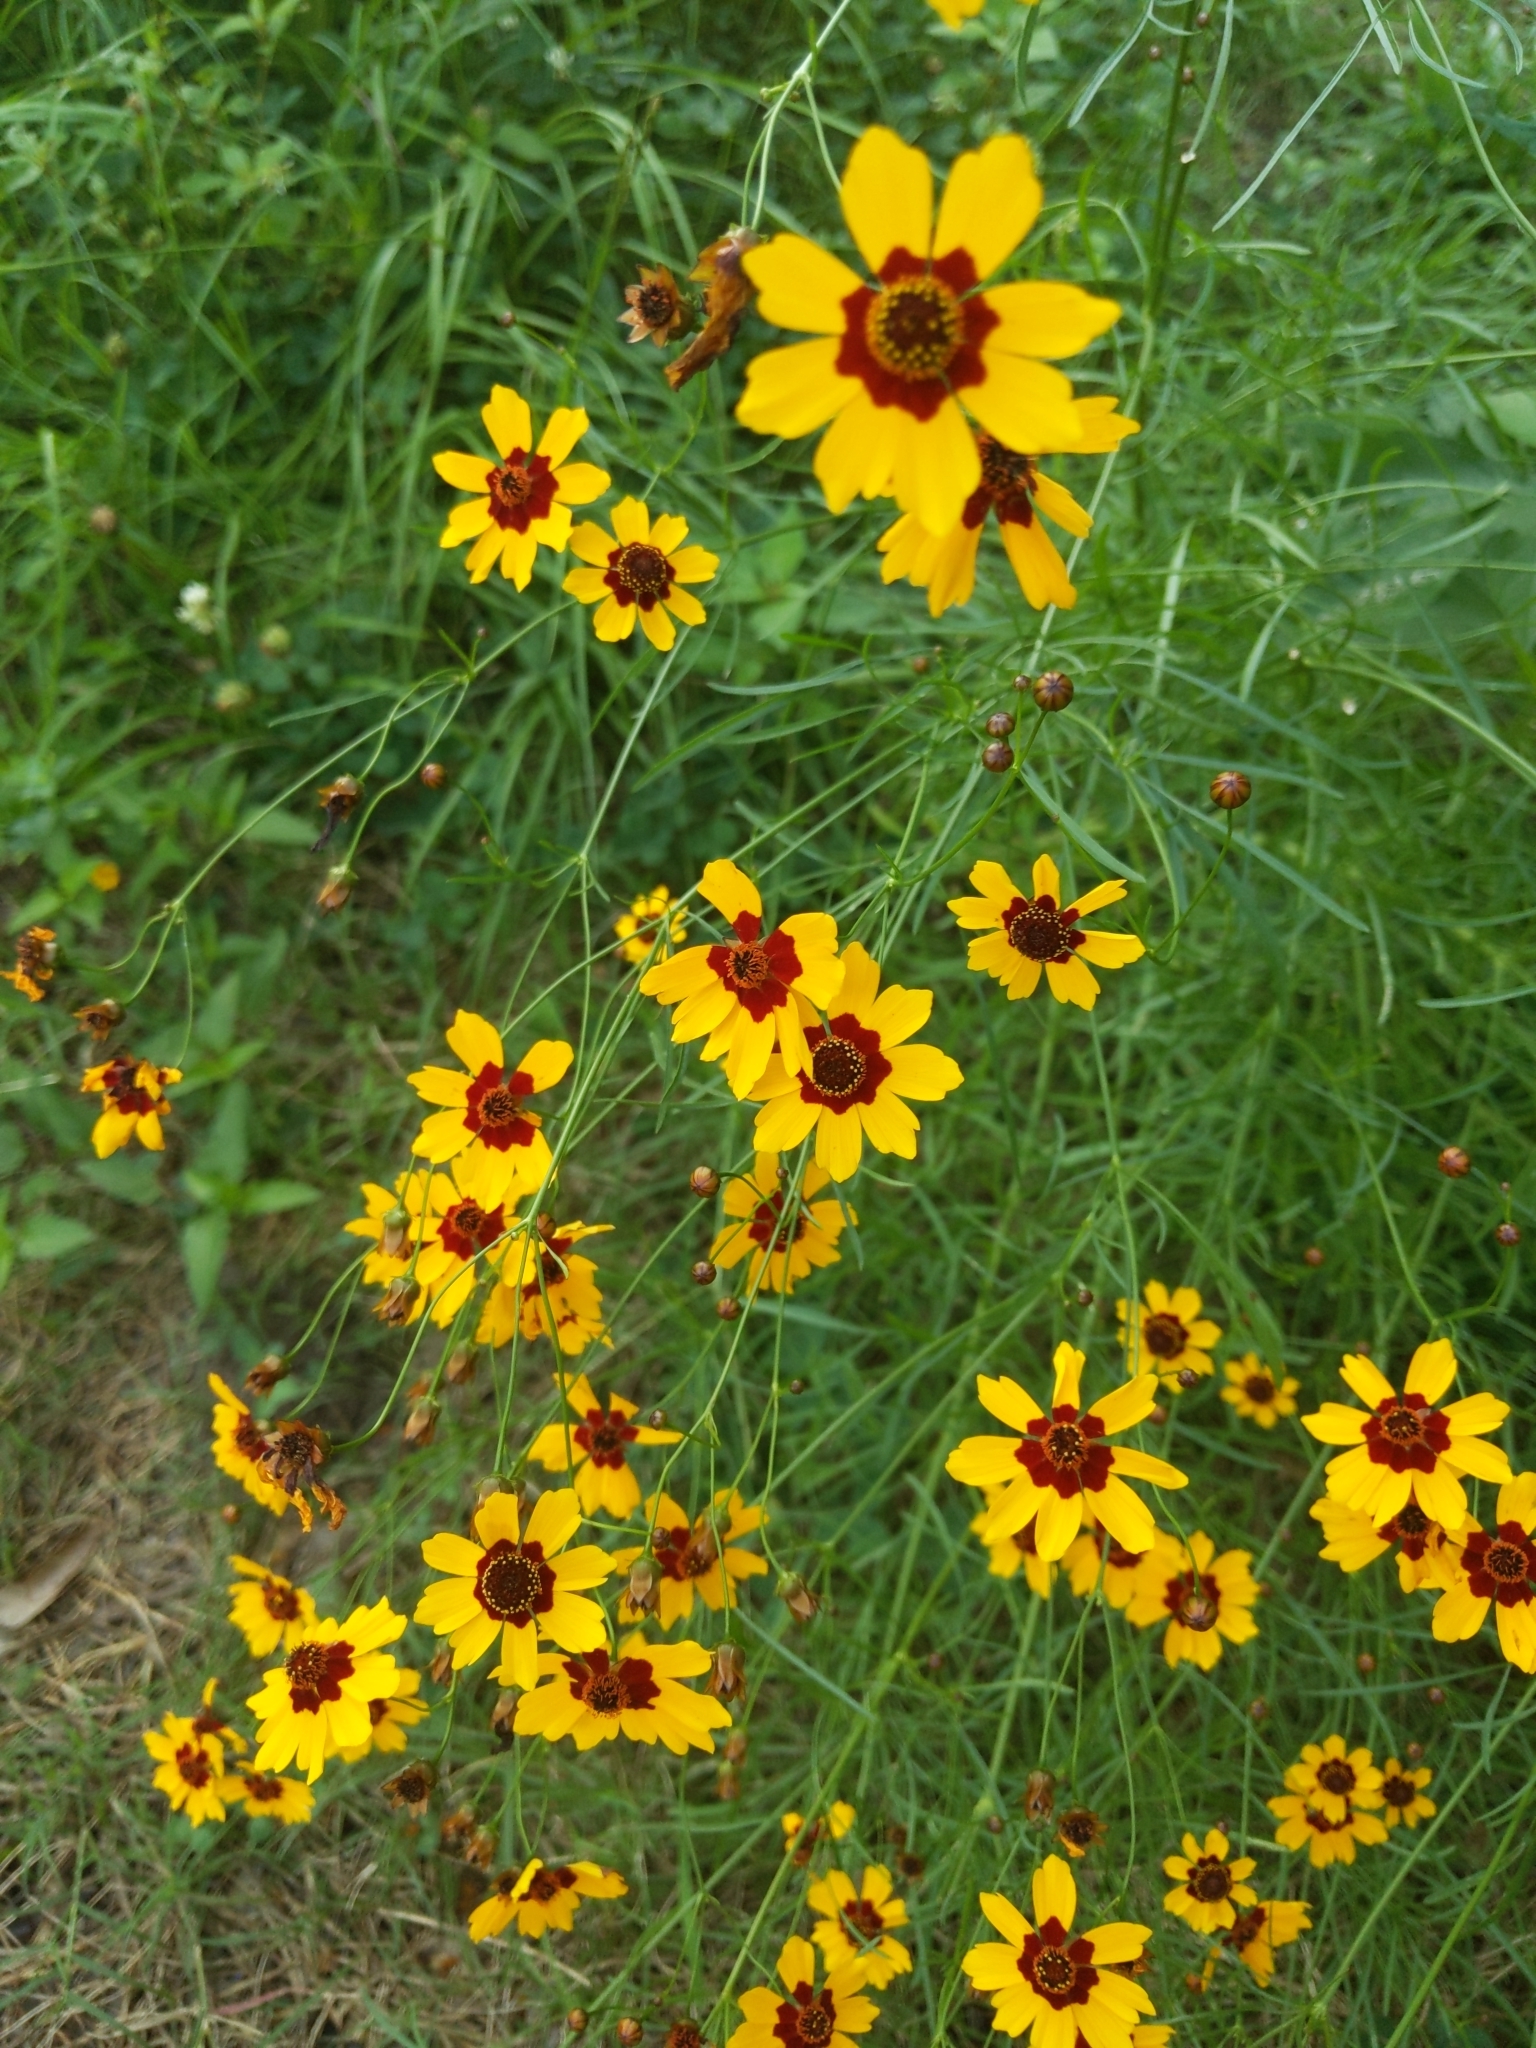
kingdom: Plantae
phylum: Tracheophyta
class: Magnoliopsida
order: Asterales
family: Asteraceae
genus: Coreopsis
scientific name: Coreopsis tinctoria
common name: Garden tickseed
